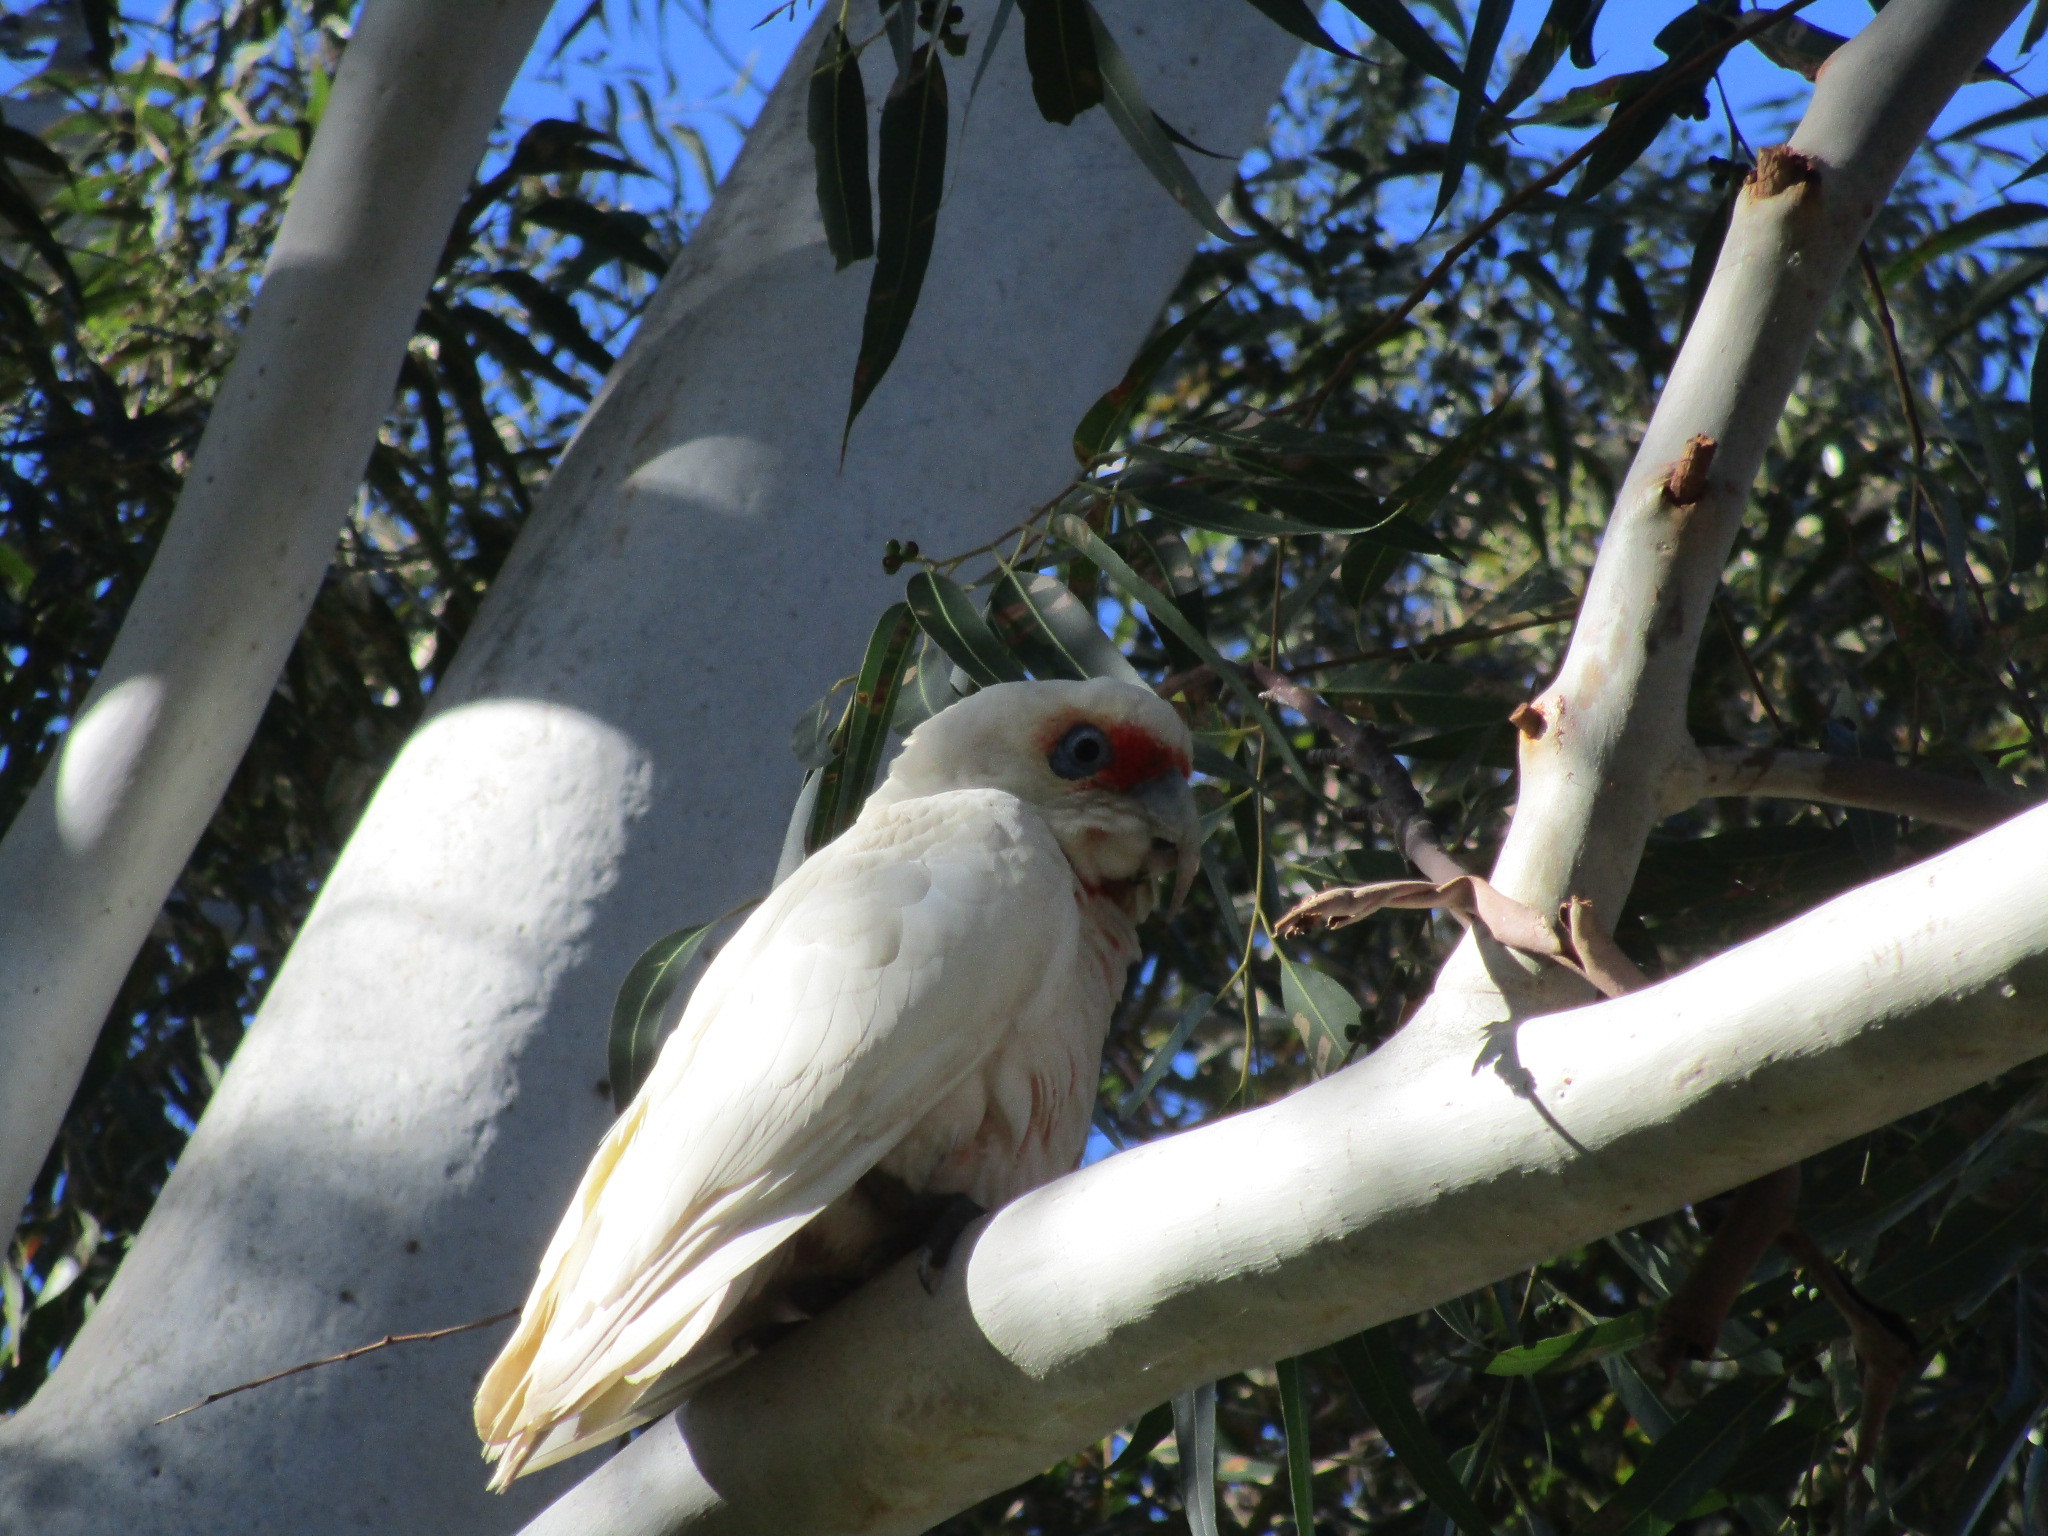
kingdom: Animalia
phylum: Chordata
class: Aves
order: Psittaciformes
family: Psittacidae
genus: Cacatua
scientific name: Cacatua tenuirostris
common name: Long-billed corella
